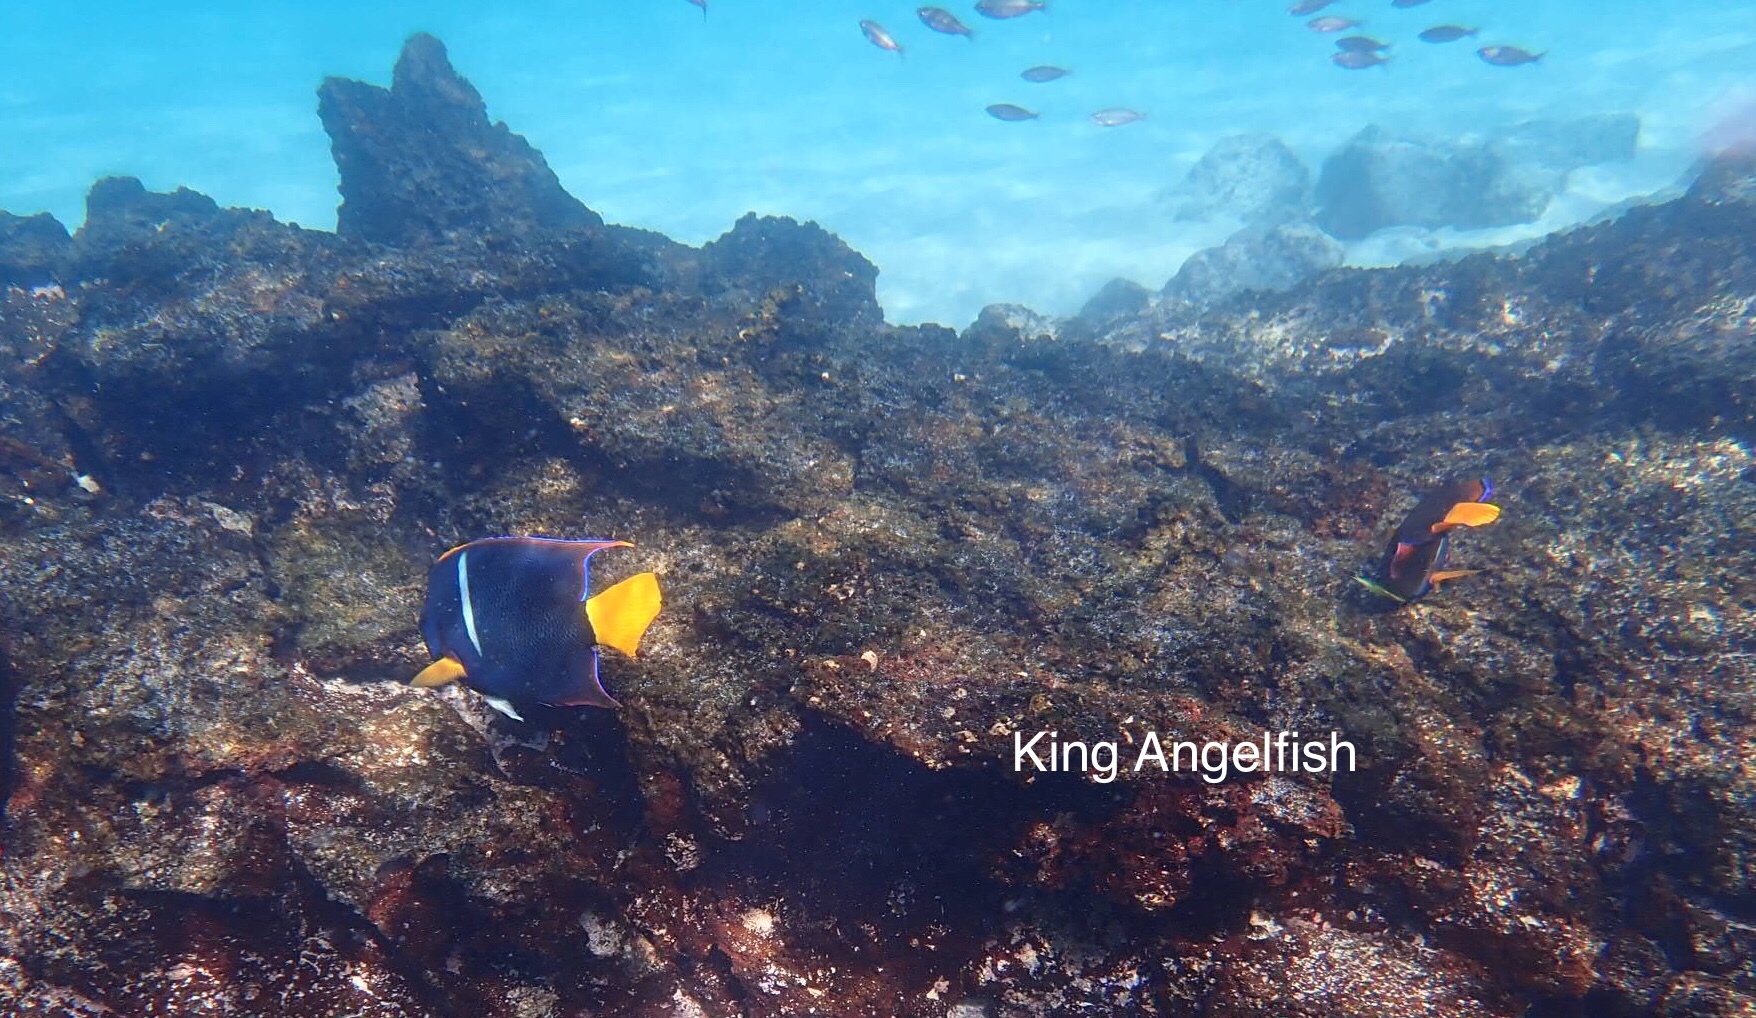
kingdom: Animalia
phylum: Chordata
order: Perciformes
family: Pomacanthidae
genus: Holacanthus
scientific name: Holacanthus passer
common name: King angelfish
